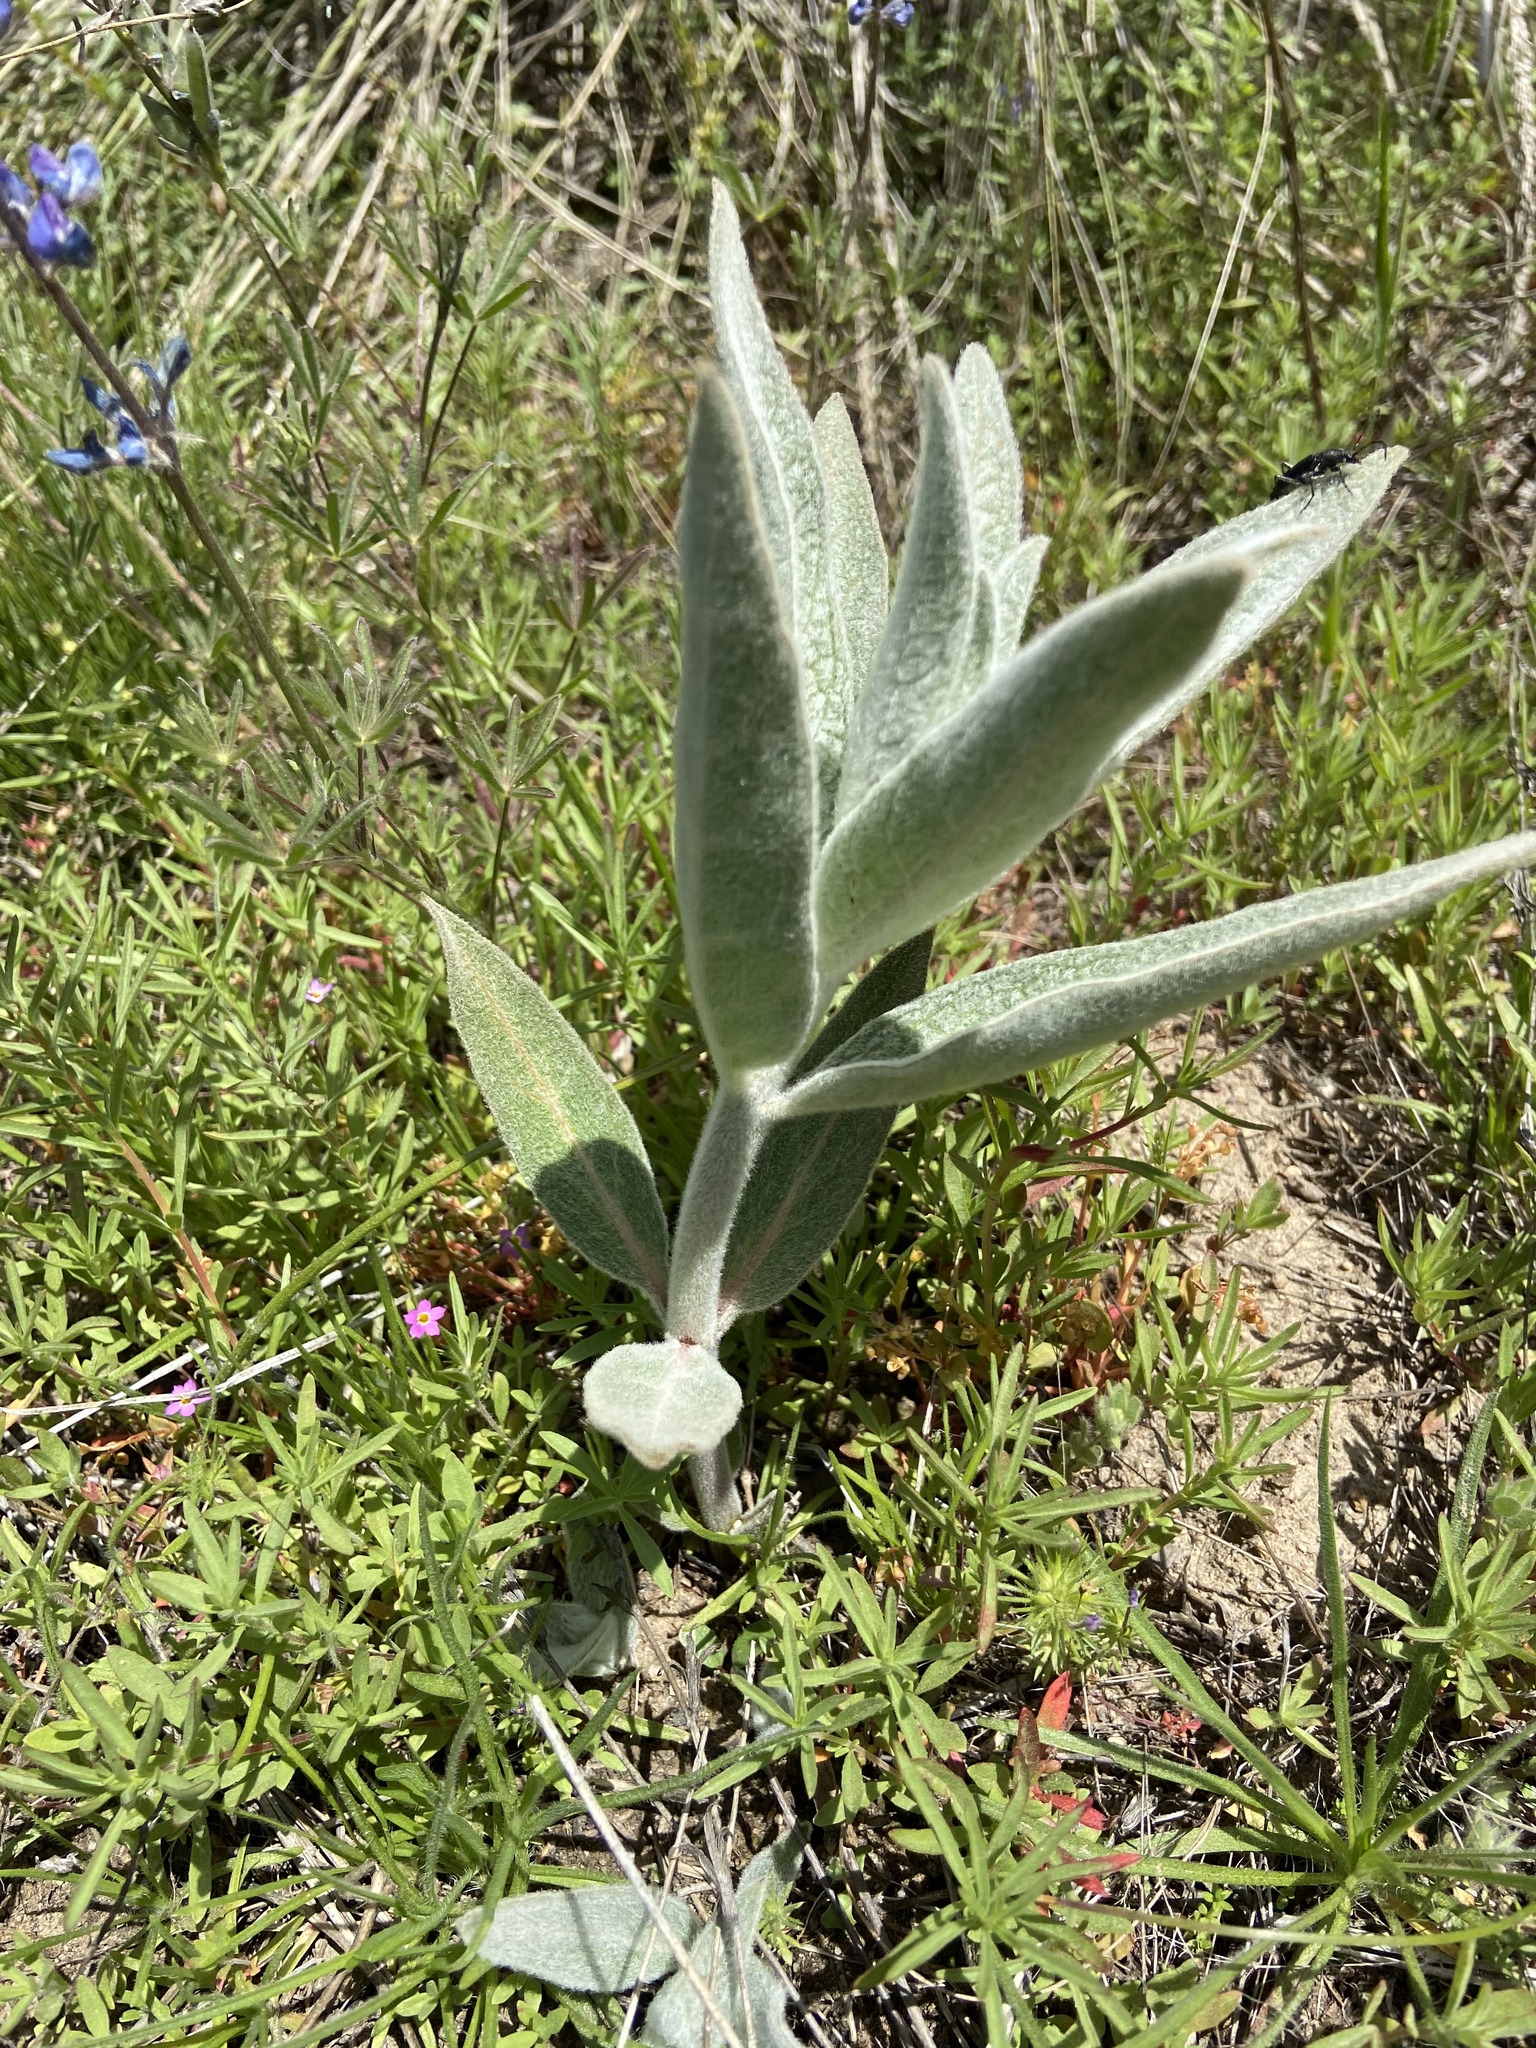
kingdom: Plantae
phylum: Tracheophyta
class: Magnoliopsida
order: Gentianales
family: Apocynaceae
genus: Asclepias
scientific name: Asclepias eriocarpa
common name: Indian milkweed
